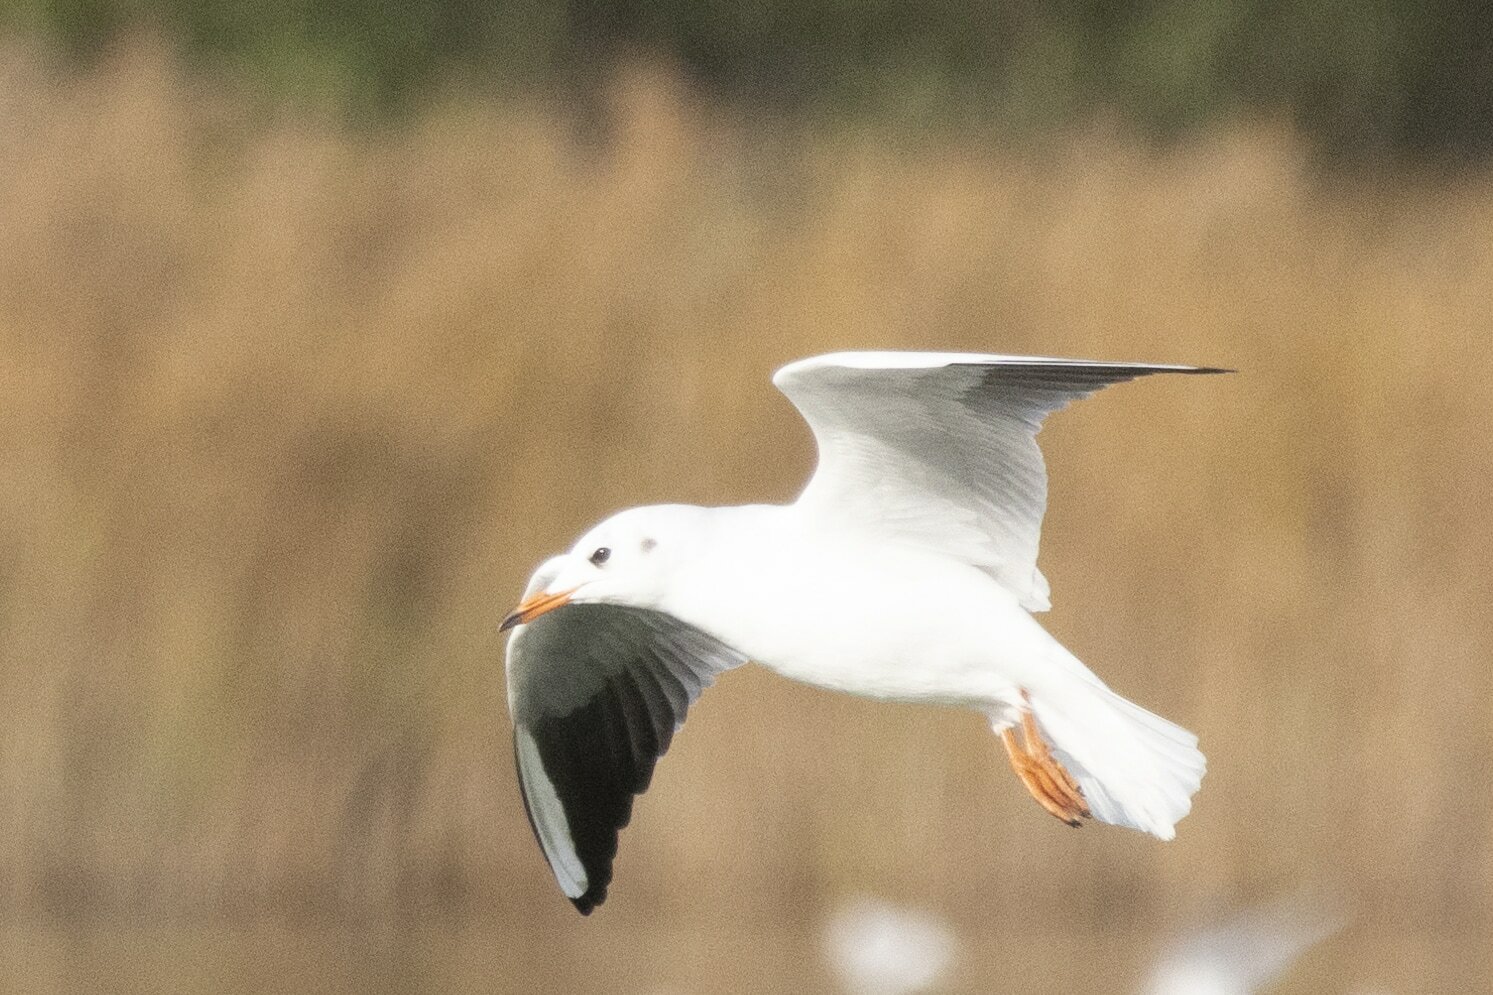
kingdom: Animalia
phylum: Chordata
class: Aves
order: Charadriiformes
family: Laridae
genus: Chroicocephalus
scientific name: Chroicocephalus ridibundus
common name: Black-headed gull
